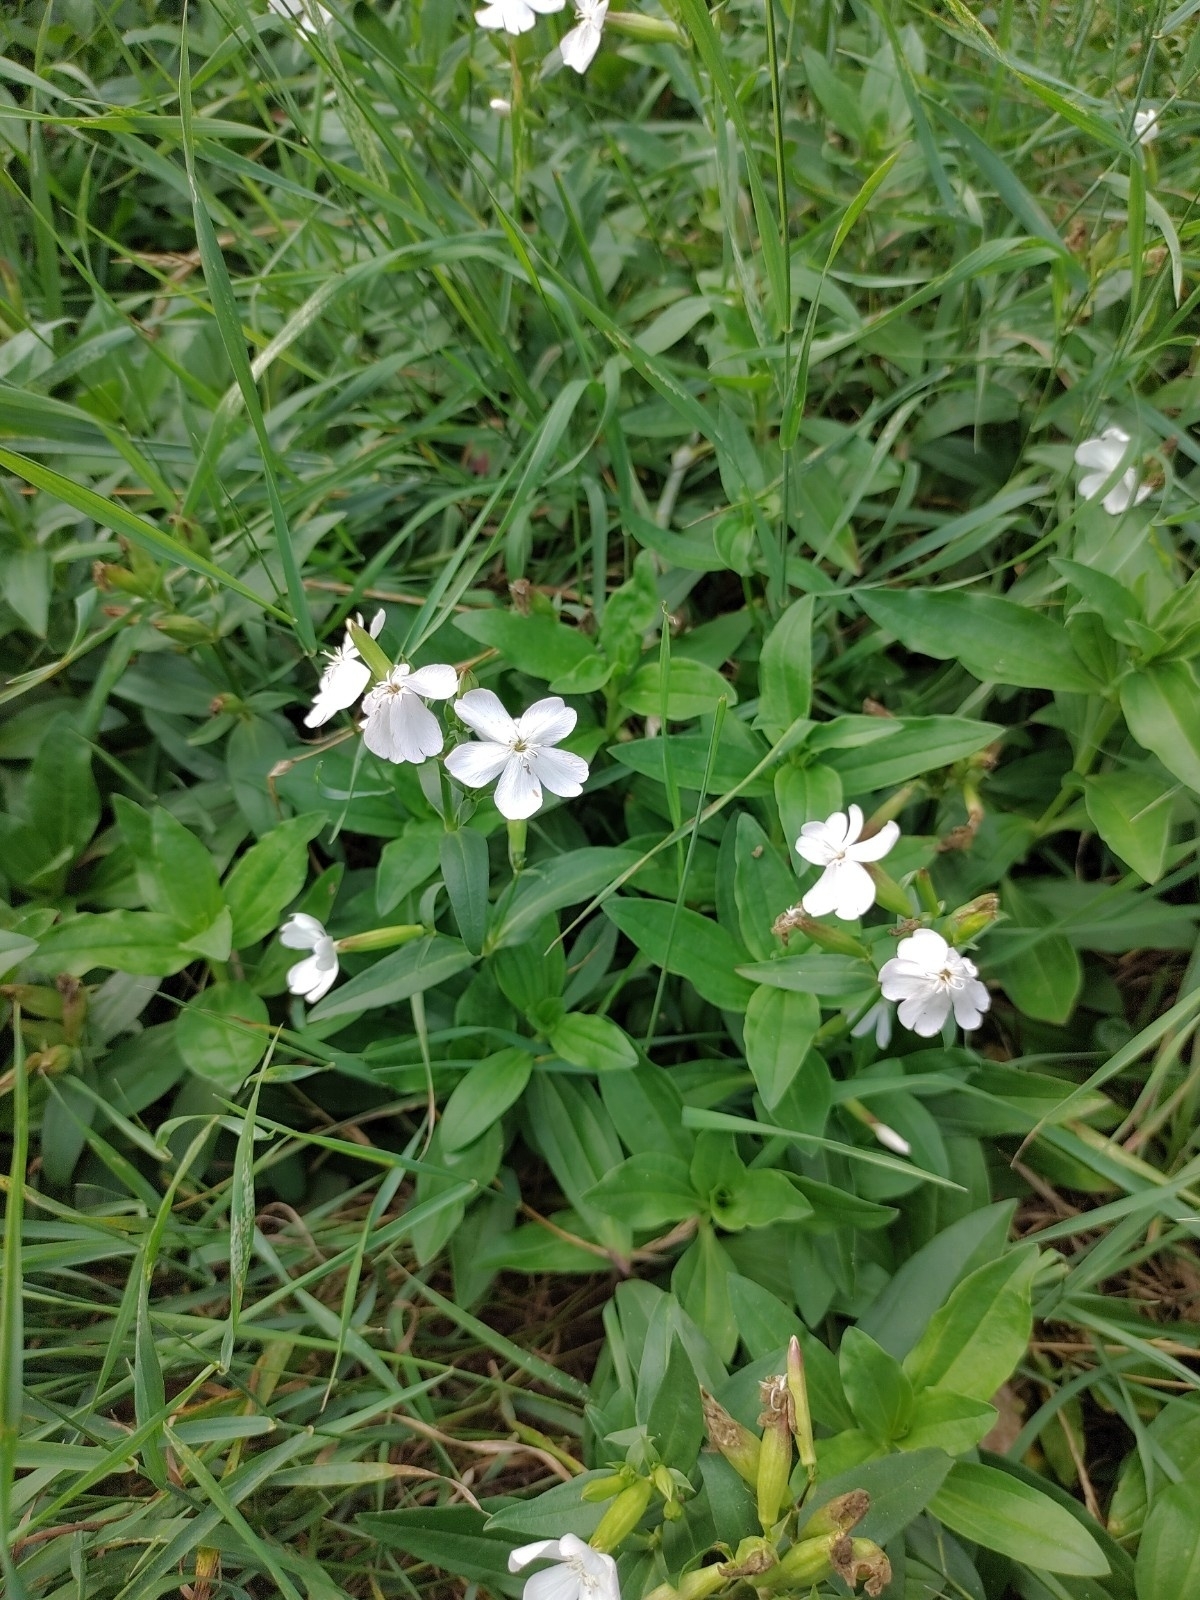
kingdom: Plantae
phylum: Tracheophyta
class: Magnoliopsida
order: Caryophyllales
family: Caryophyllaceae
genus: Saponaria
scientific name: Saponaria officinalis
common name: Soapwort
